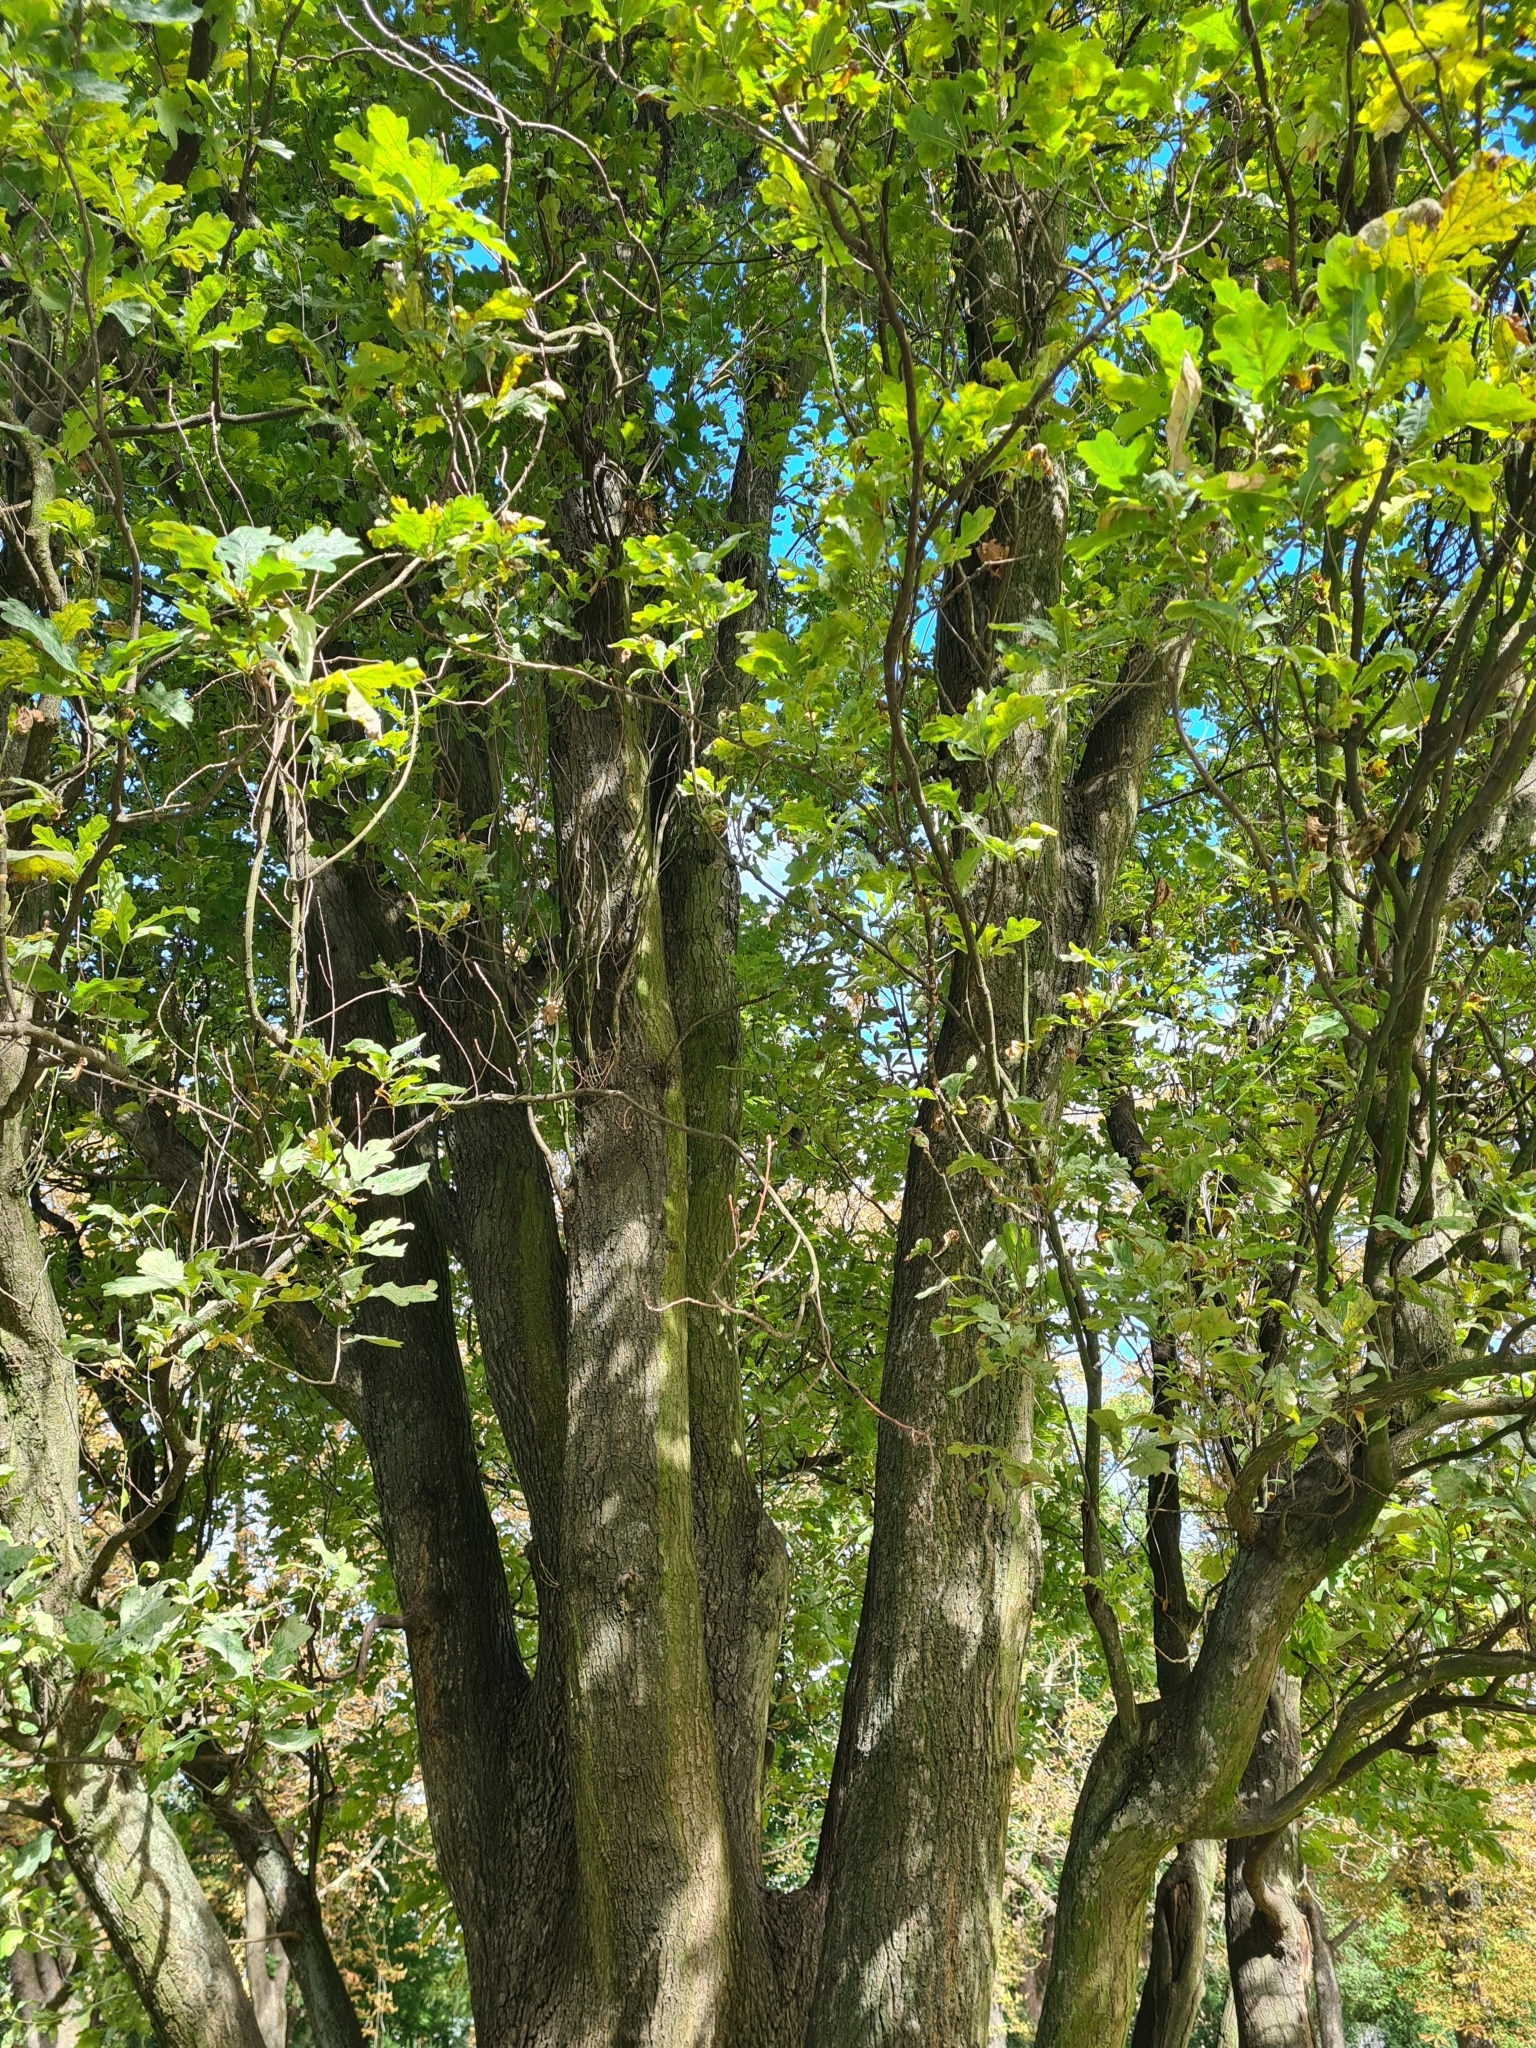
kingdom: Plantae
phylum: Tracheophyta
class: Magnoliopsida
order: Fagales
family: Fagaceae
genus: Quercus
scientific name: Quercus robur
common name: Pedunculate oak
